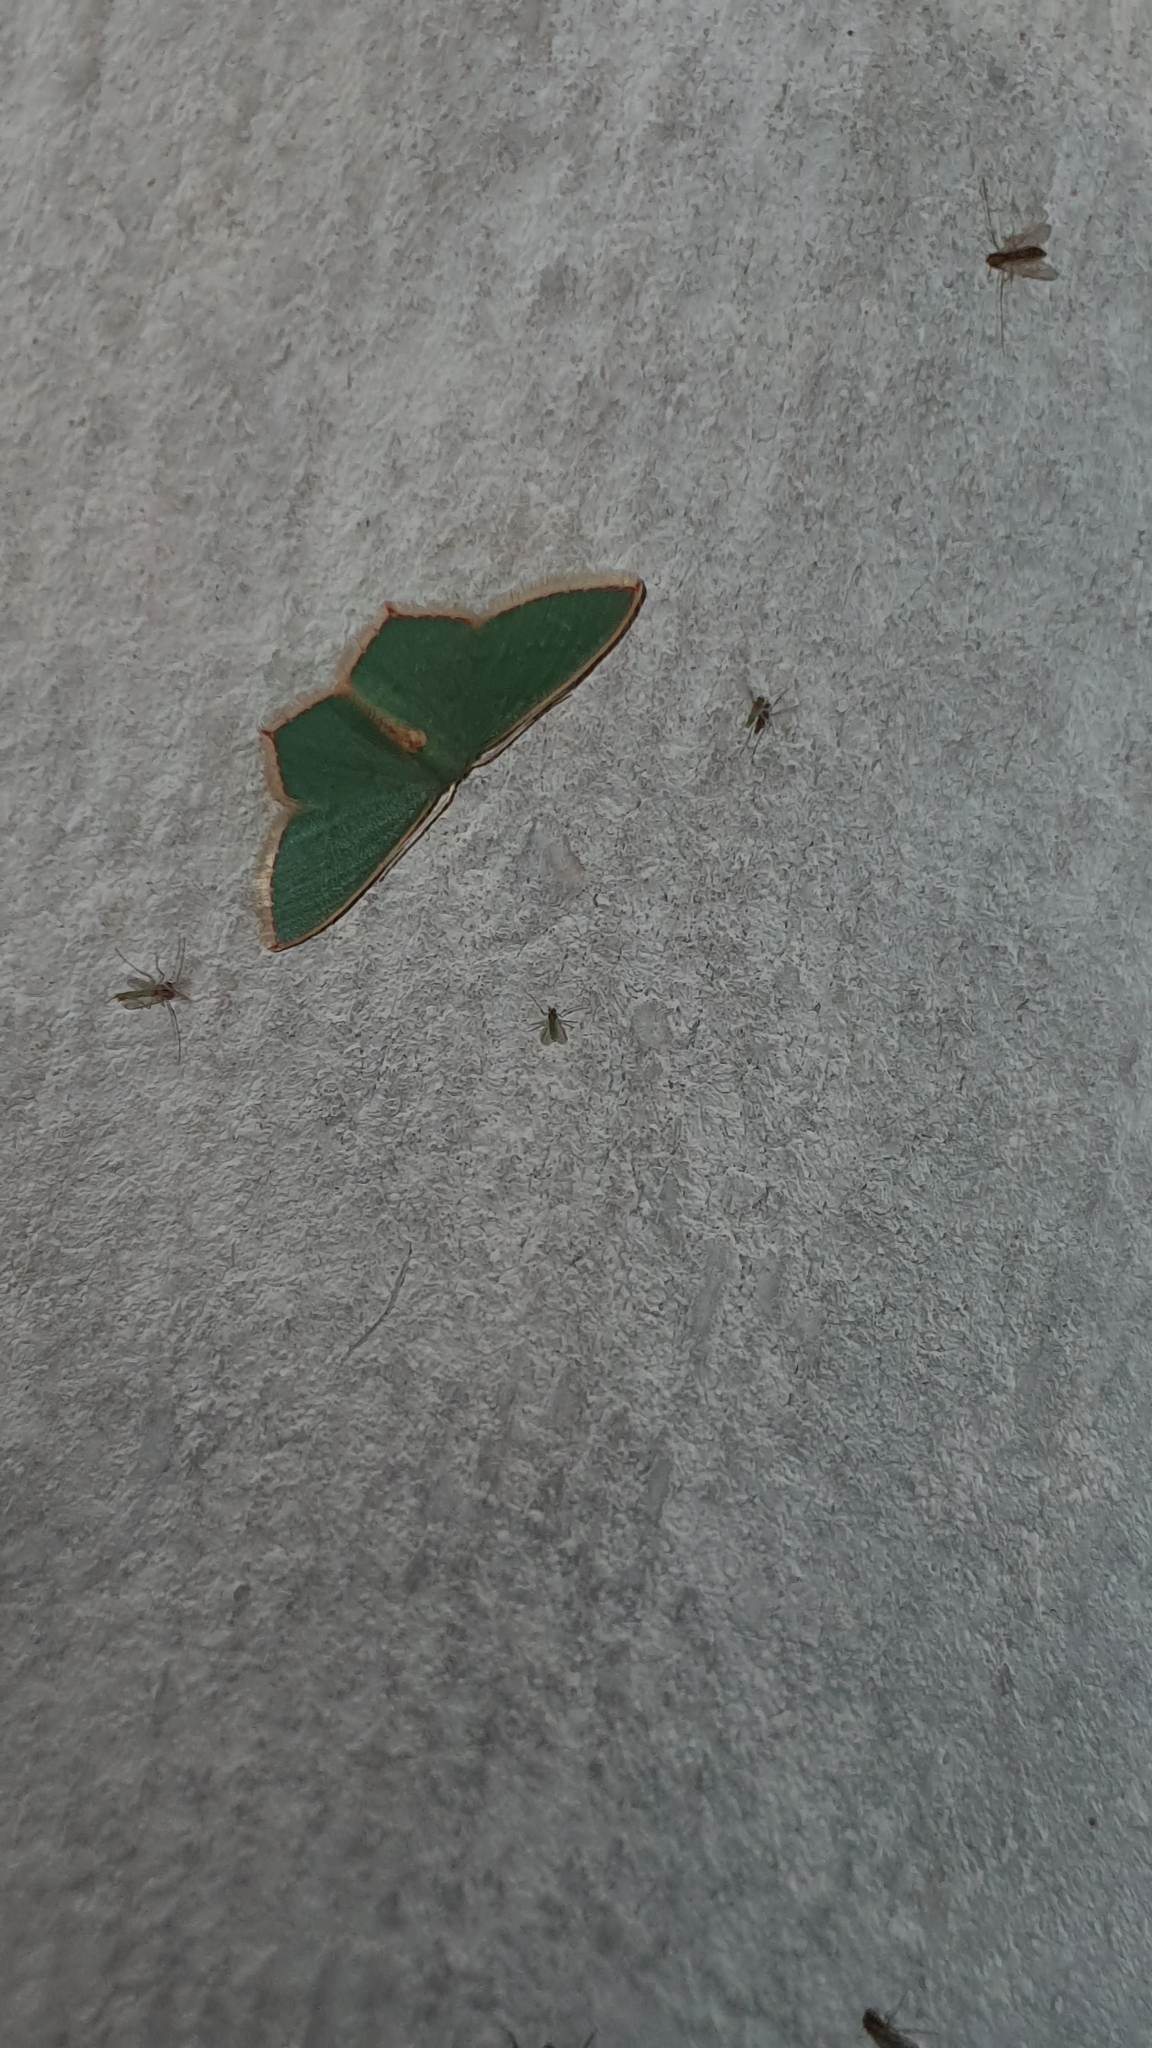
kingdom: Animalia
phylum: Arthropoda
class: Insecta
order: Lepidoptera
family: Geometridae
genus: Pamphlebia
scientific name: Pamphlebia rubrolimbraria
